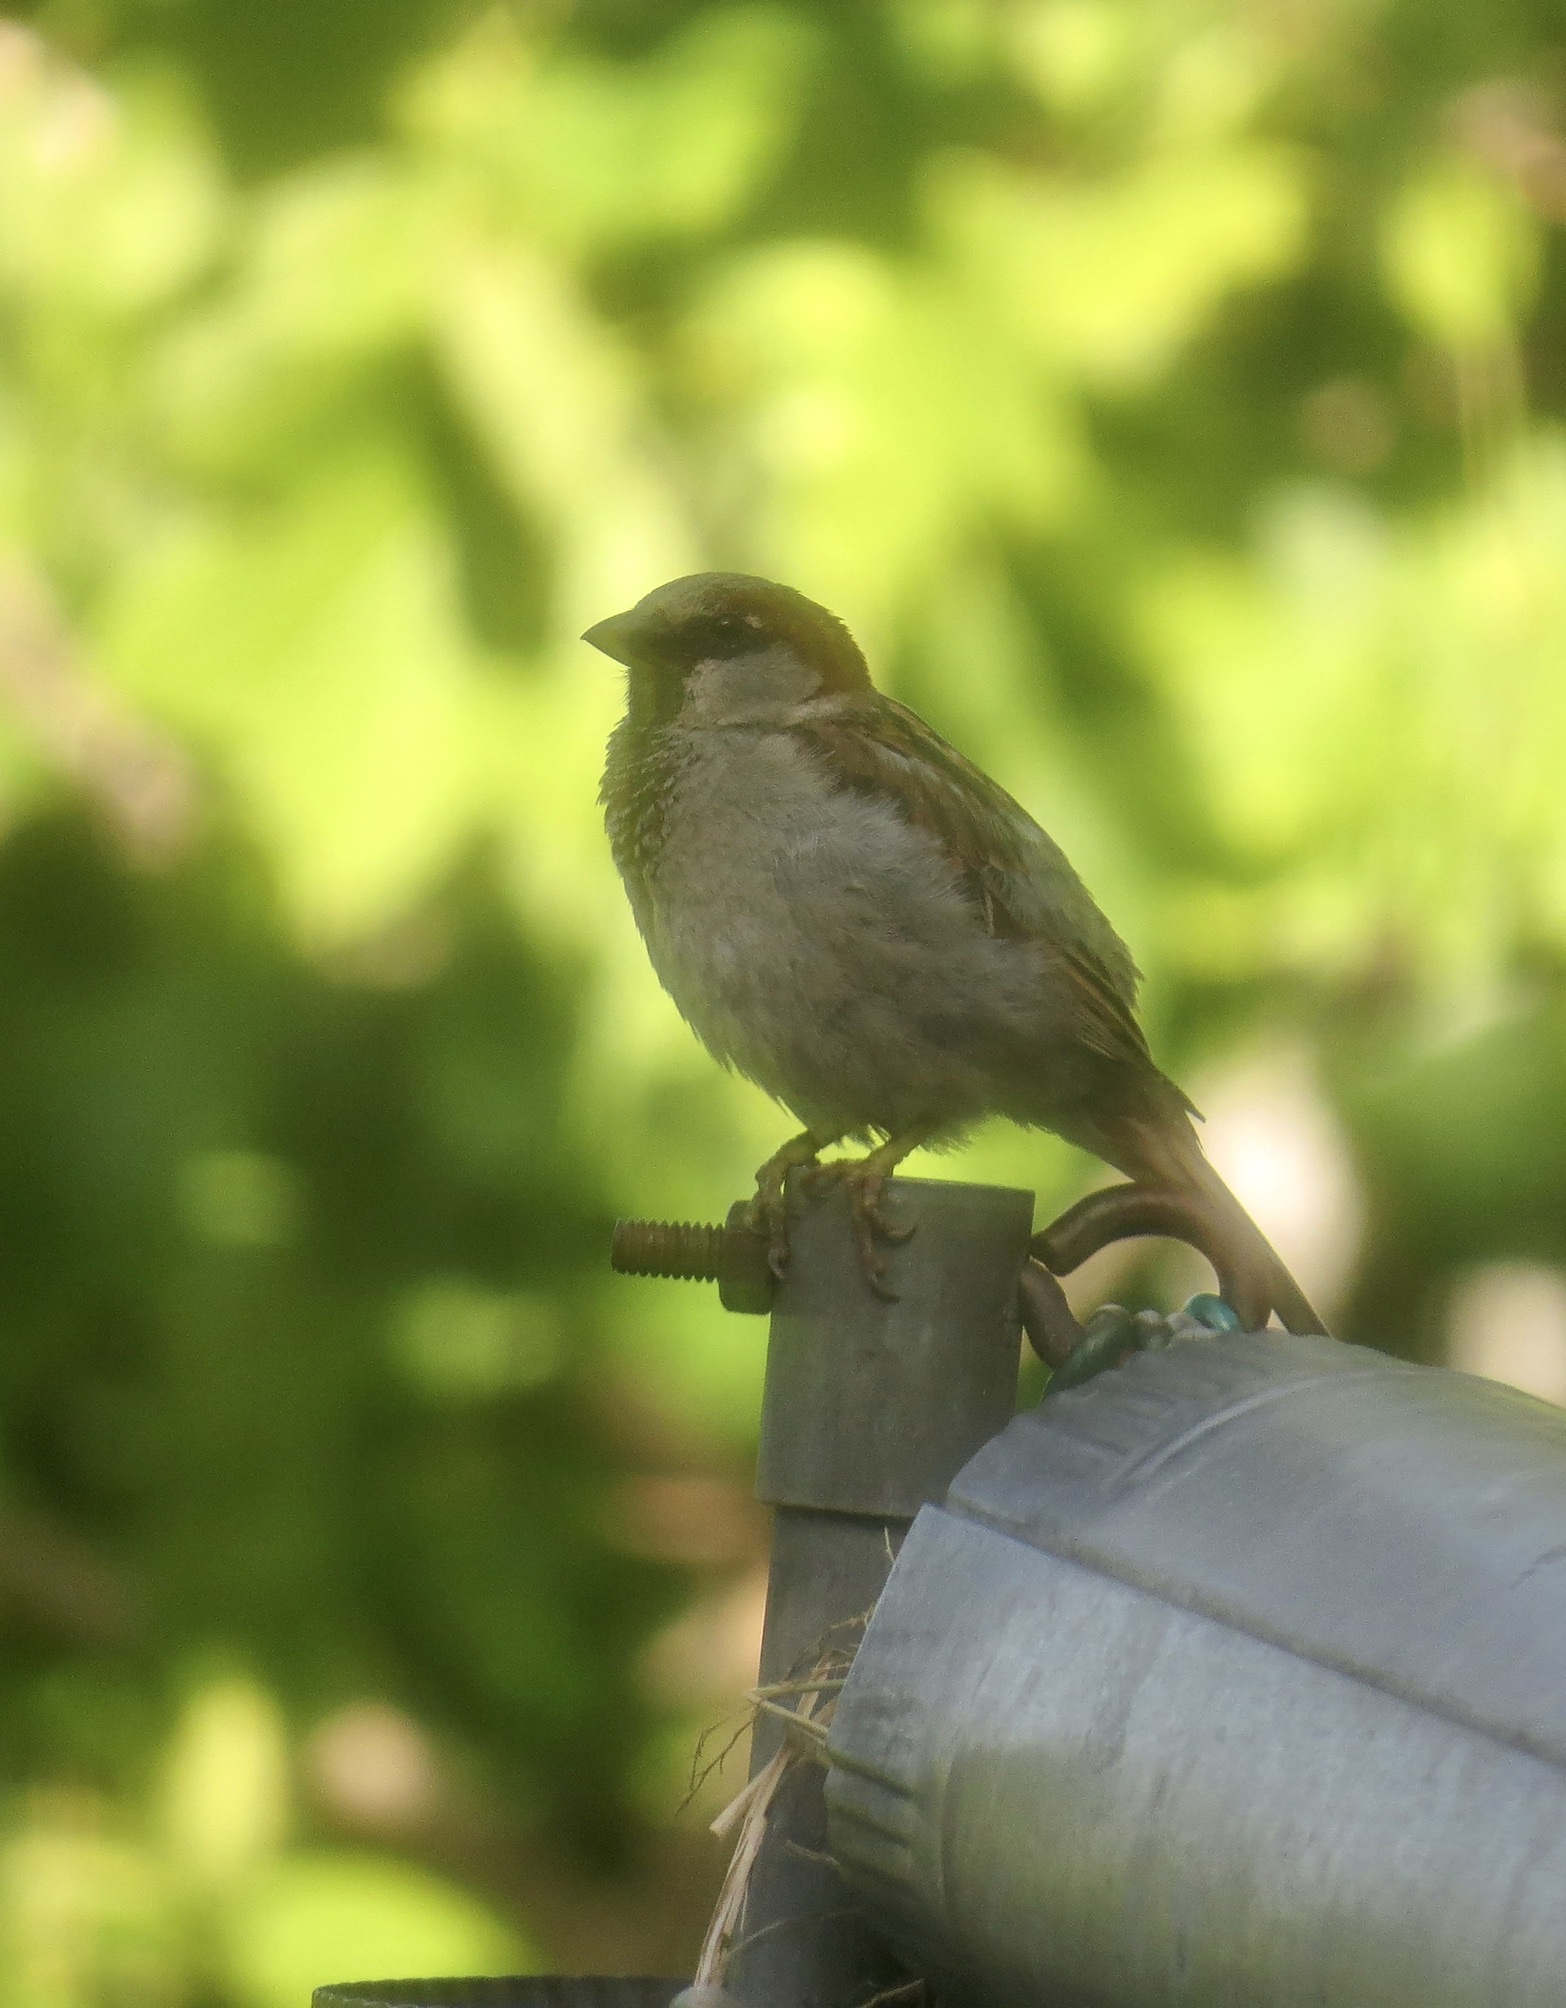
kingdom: Animalia
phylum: Chordata
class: Aves
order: Passeriformes
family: Passeridae
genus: Passer
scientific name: Passer domesticus
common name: House sparrow
